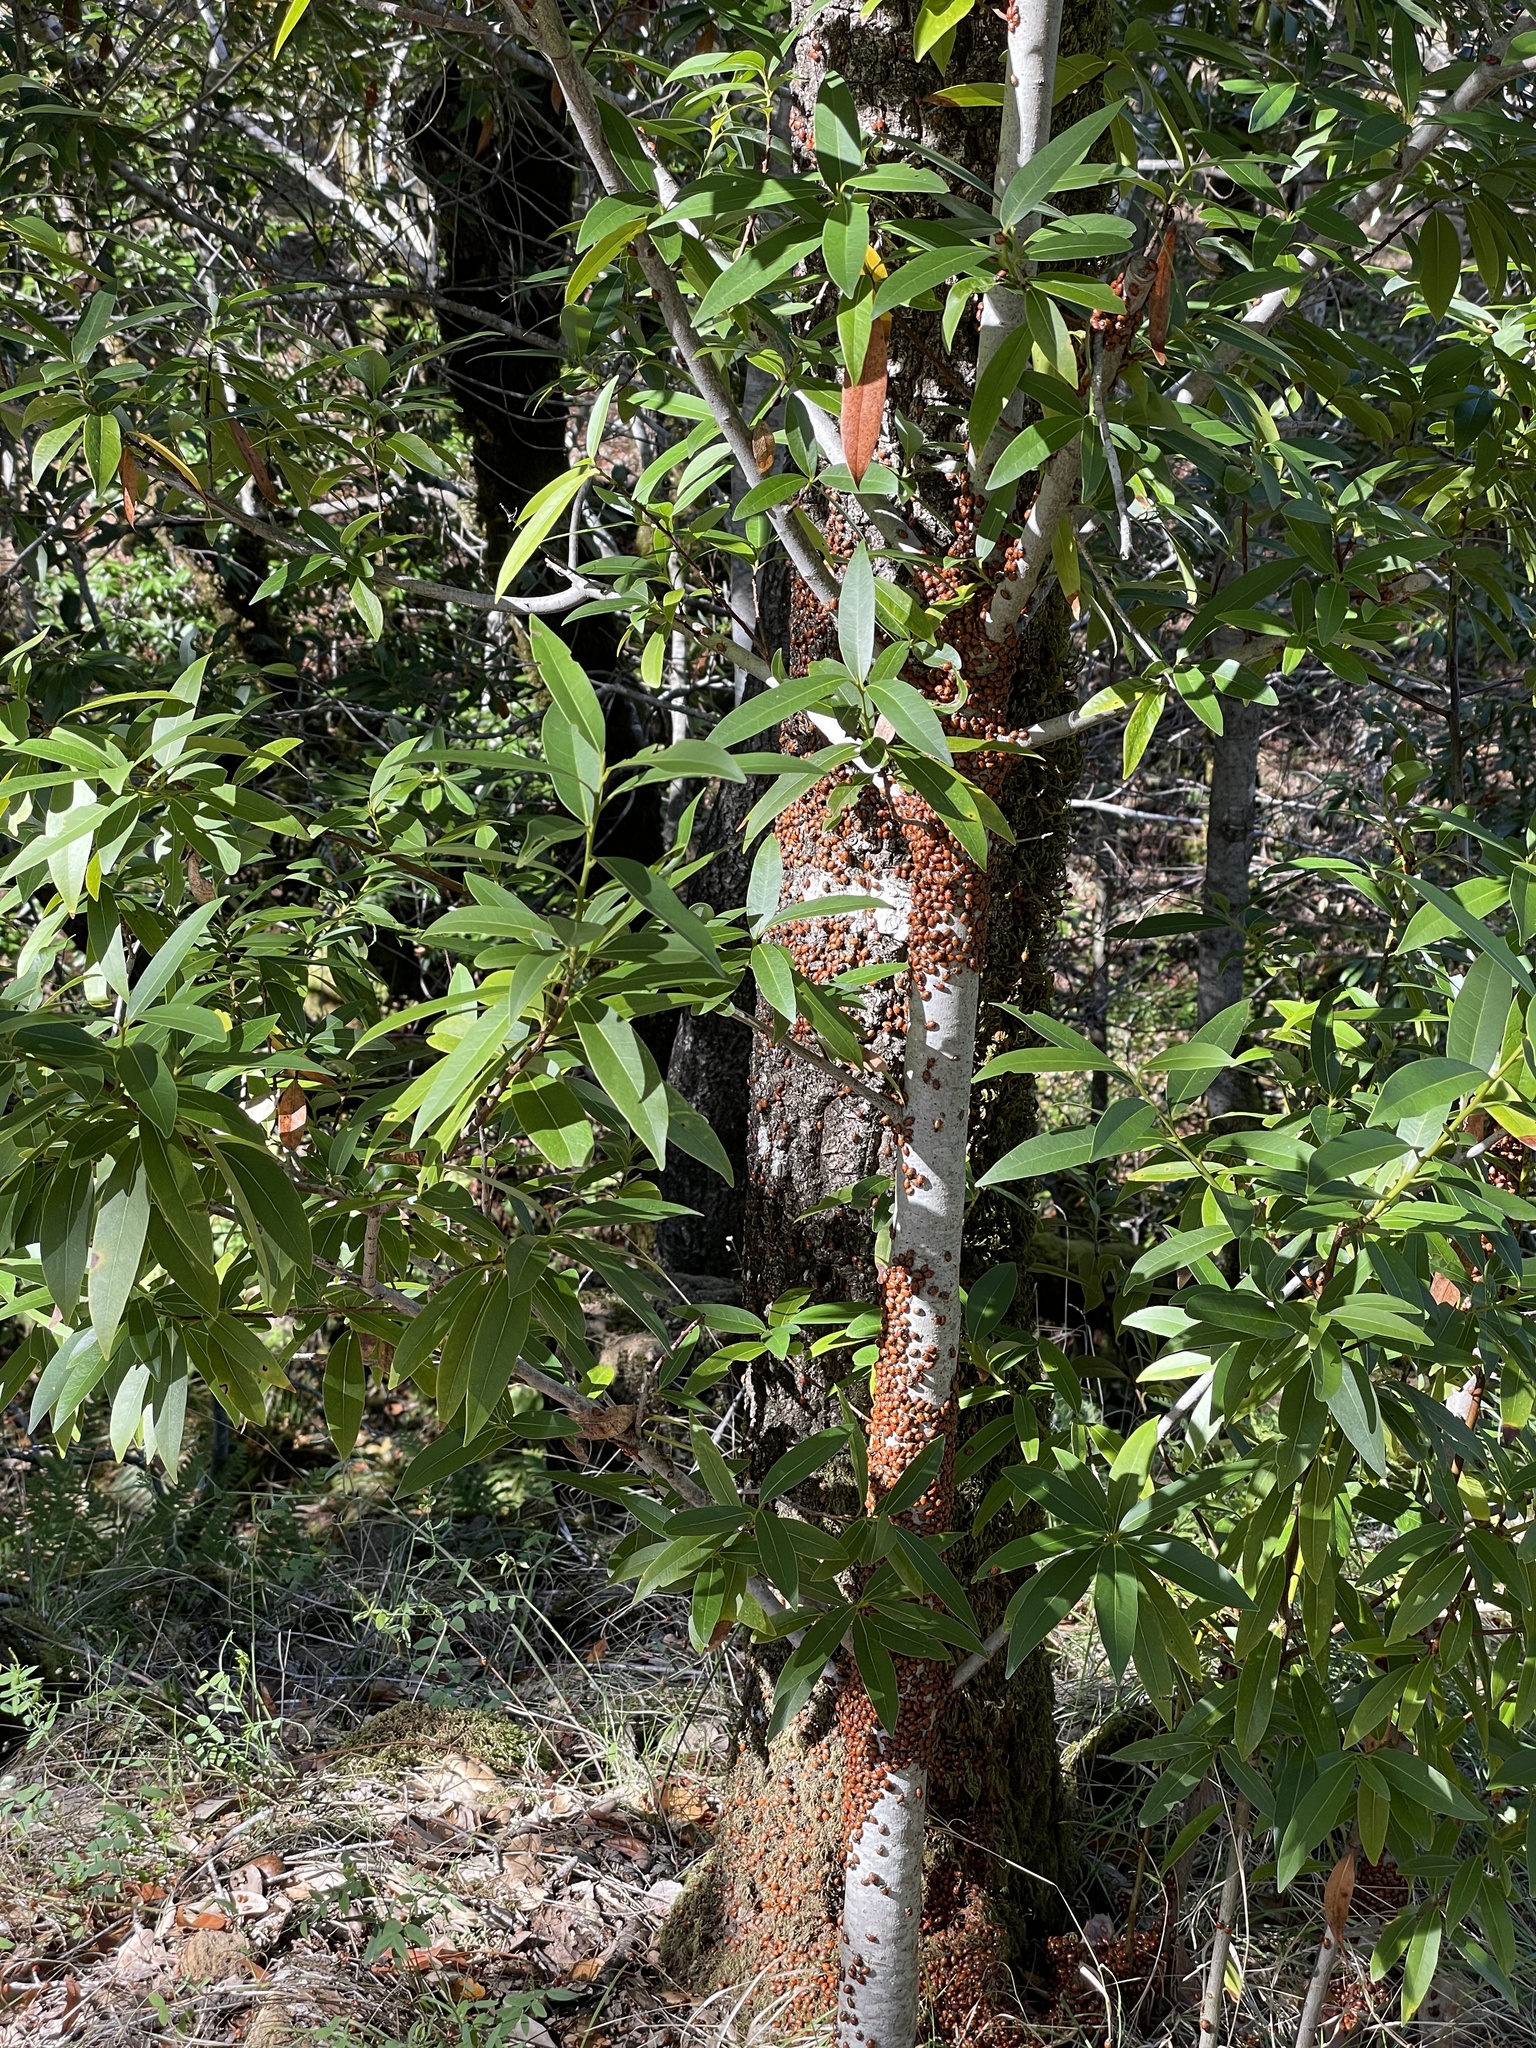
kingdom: Animalia
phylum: Arthropoda
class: Insecta
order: Coleoptera
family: Coccinellidae
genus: Hippodamia
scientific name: Hippodamia convergens
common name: Convergent lady beetle
